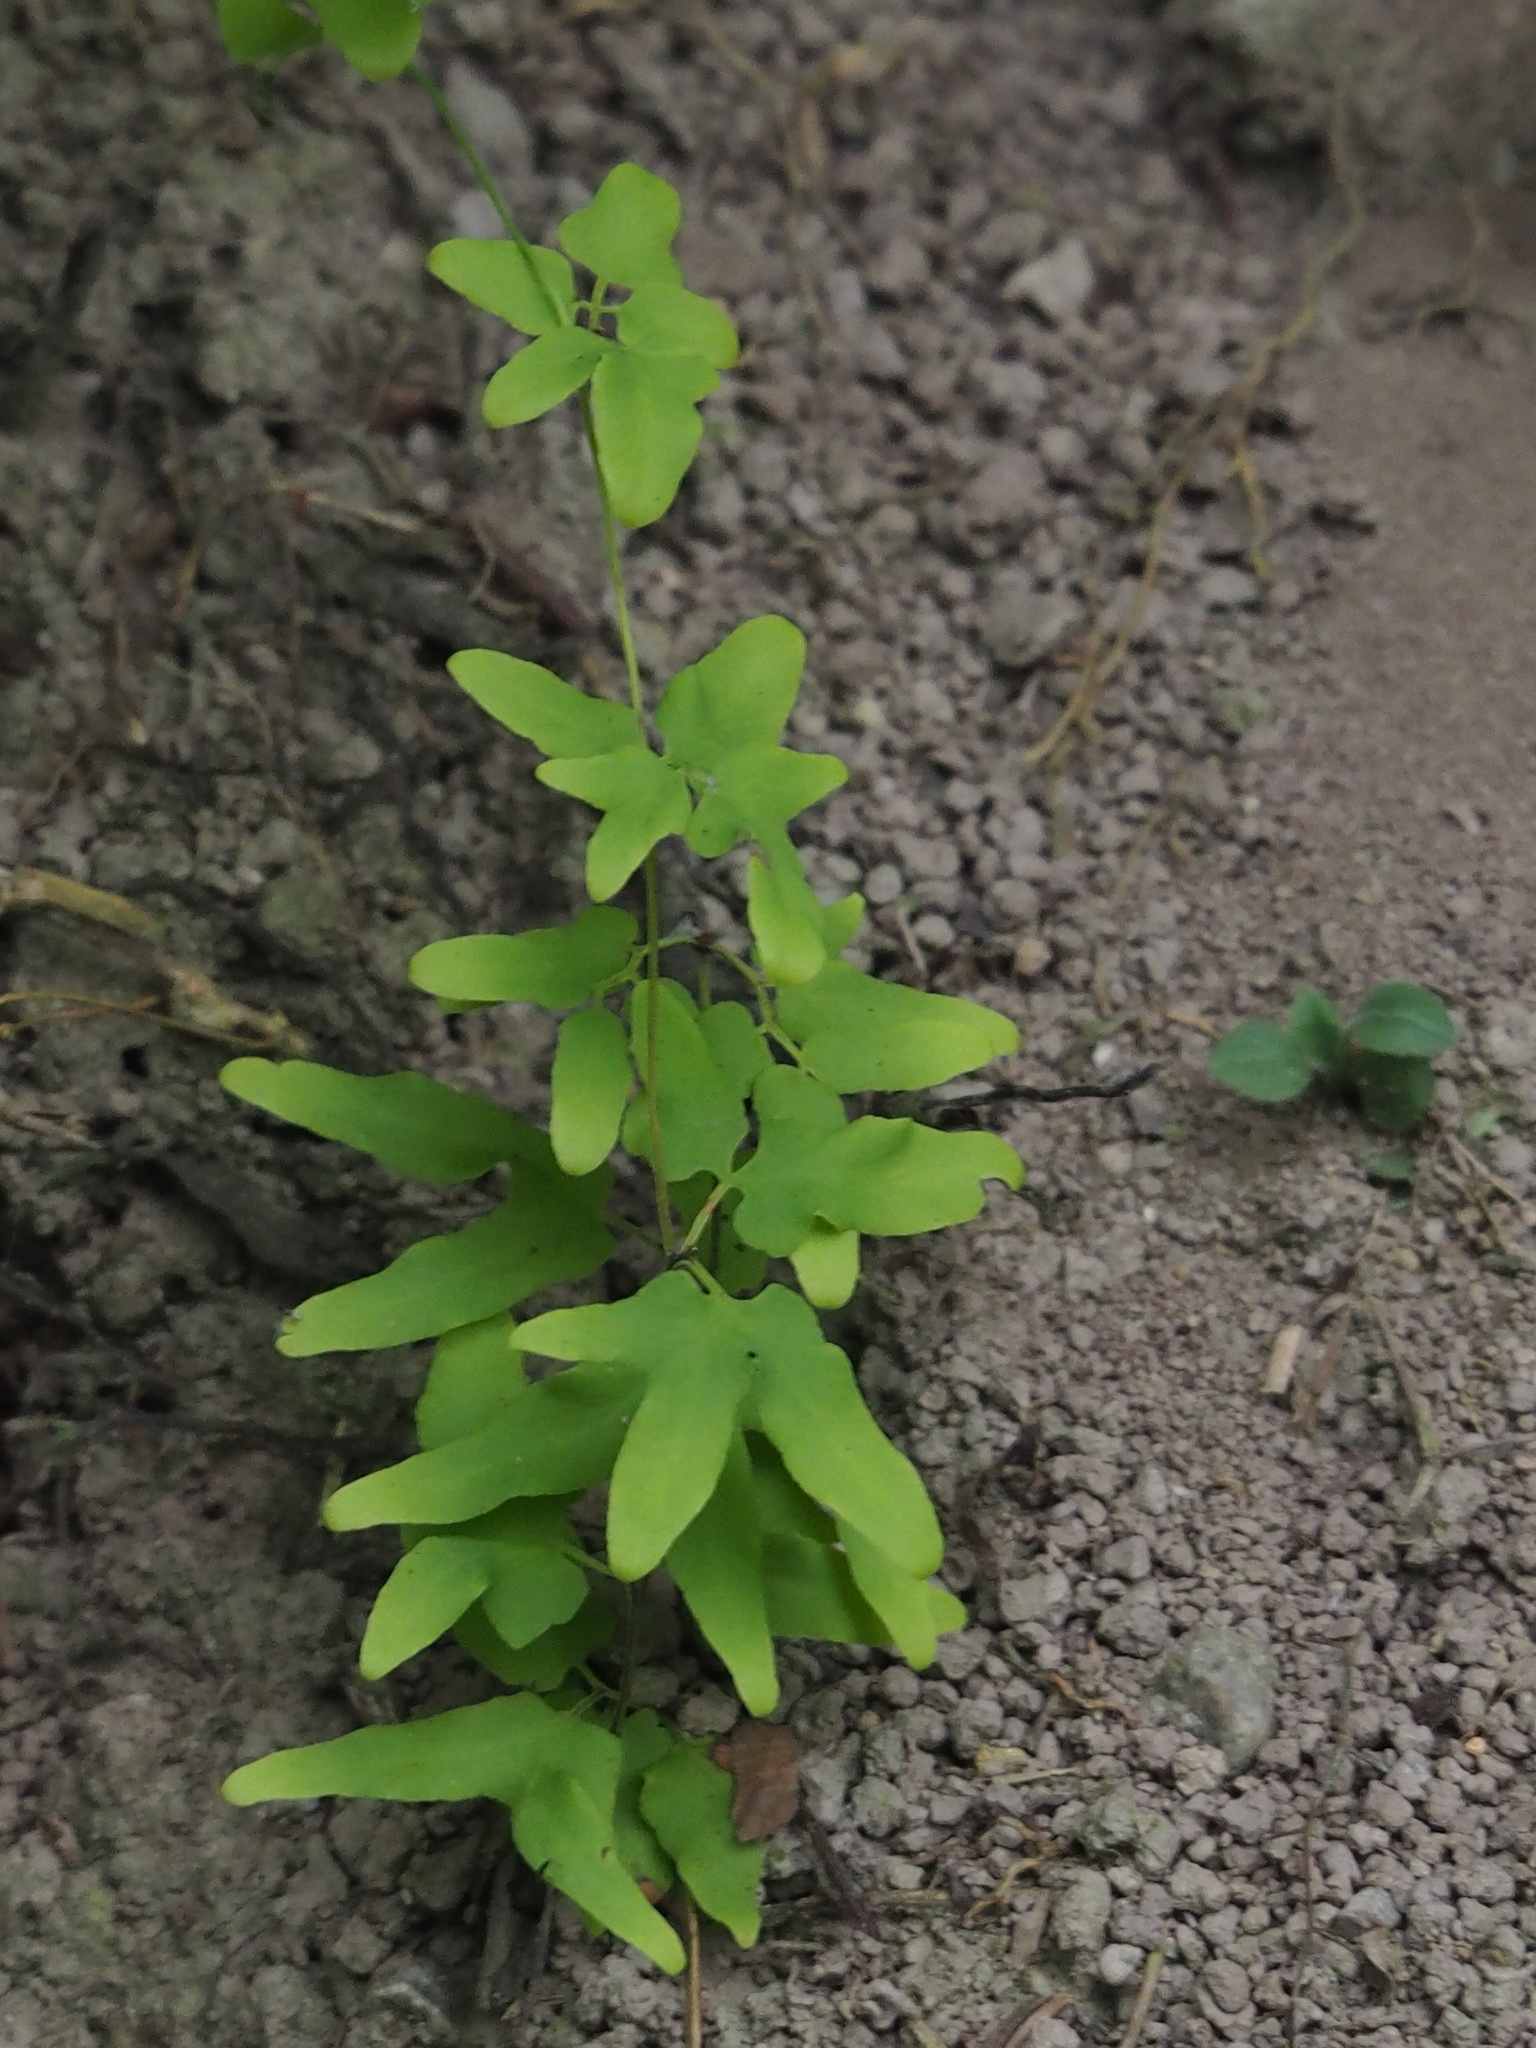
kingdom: Plantae
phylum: Tracheophyta
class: Polypodiopsida
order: Schizaeales
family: Lygodiaceae
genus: Lygodium
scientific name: Lygodium microphyllum
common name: Small-leaf climbing fern
